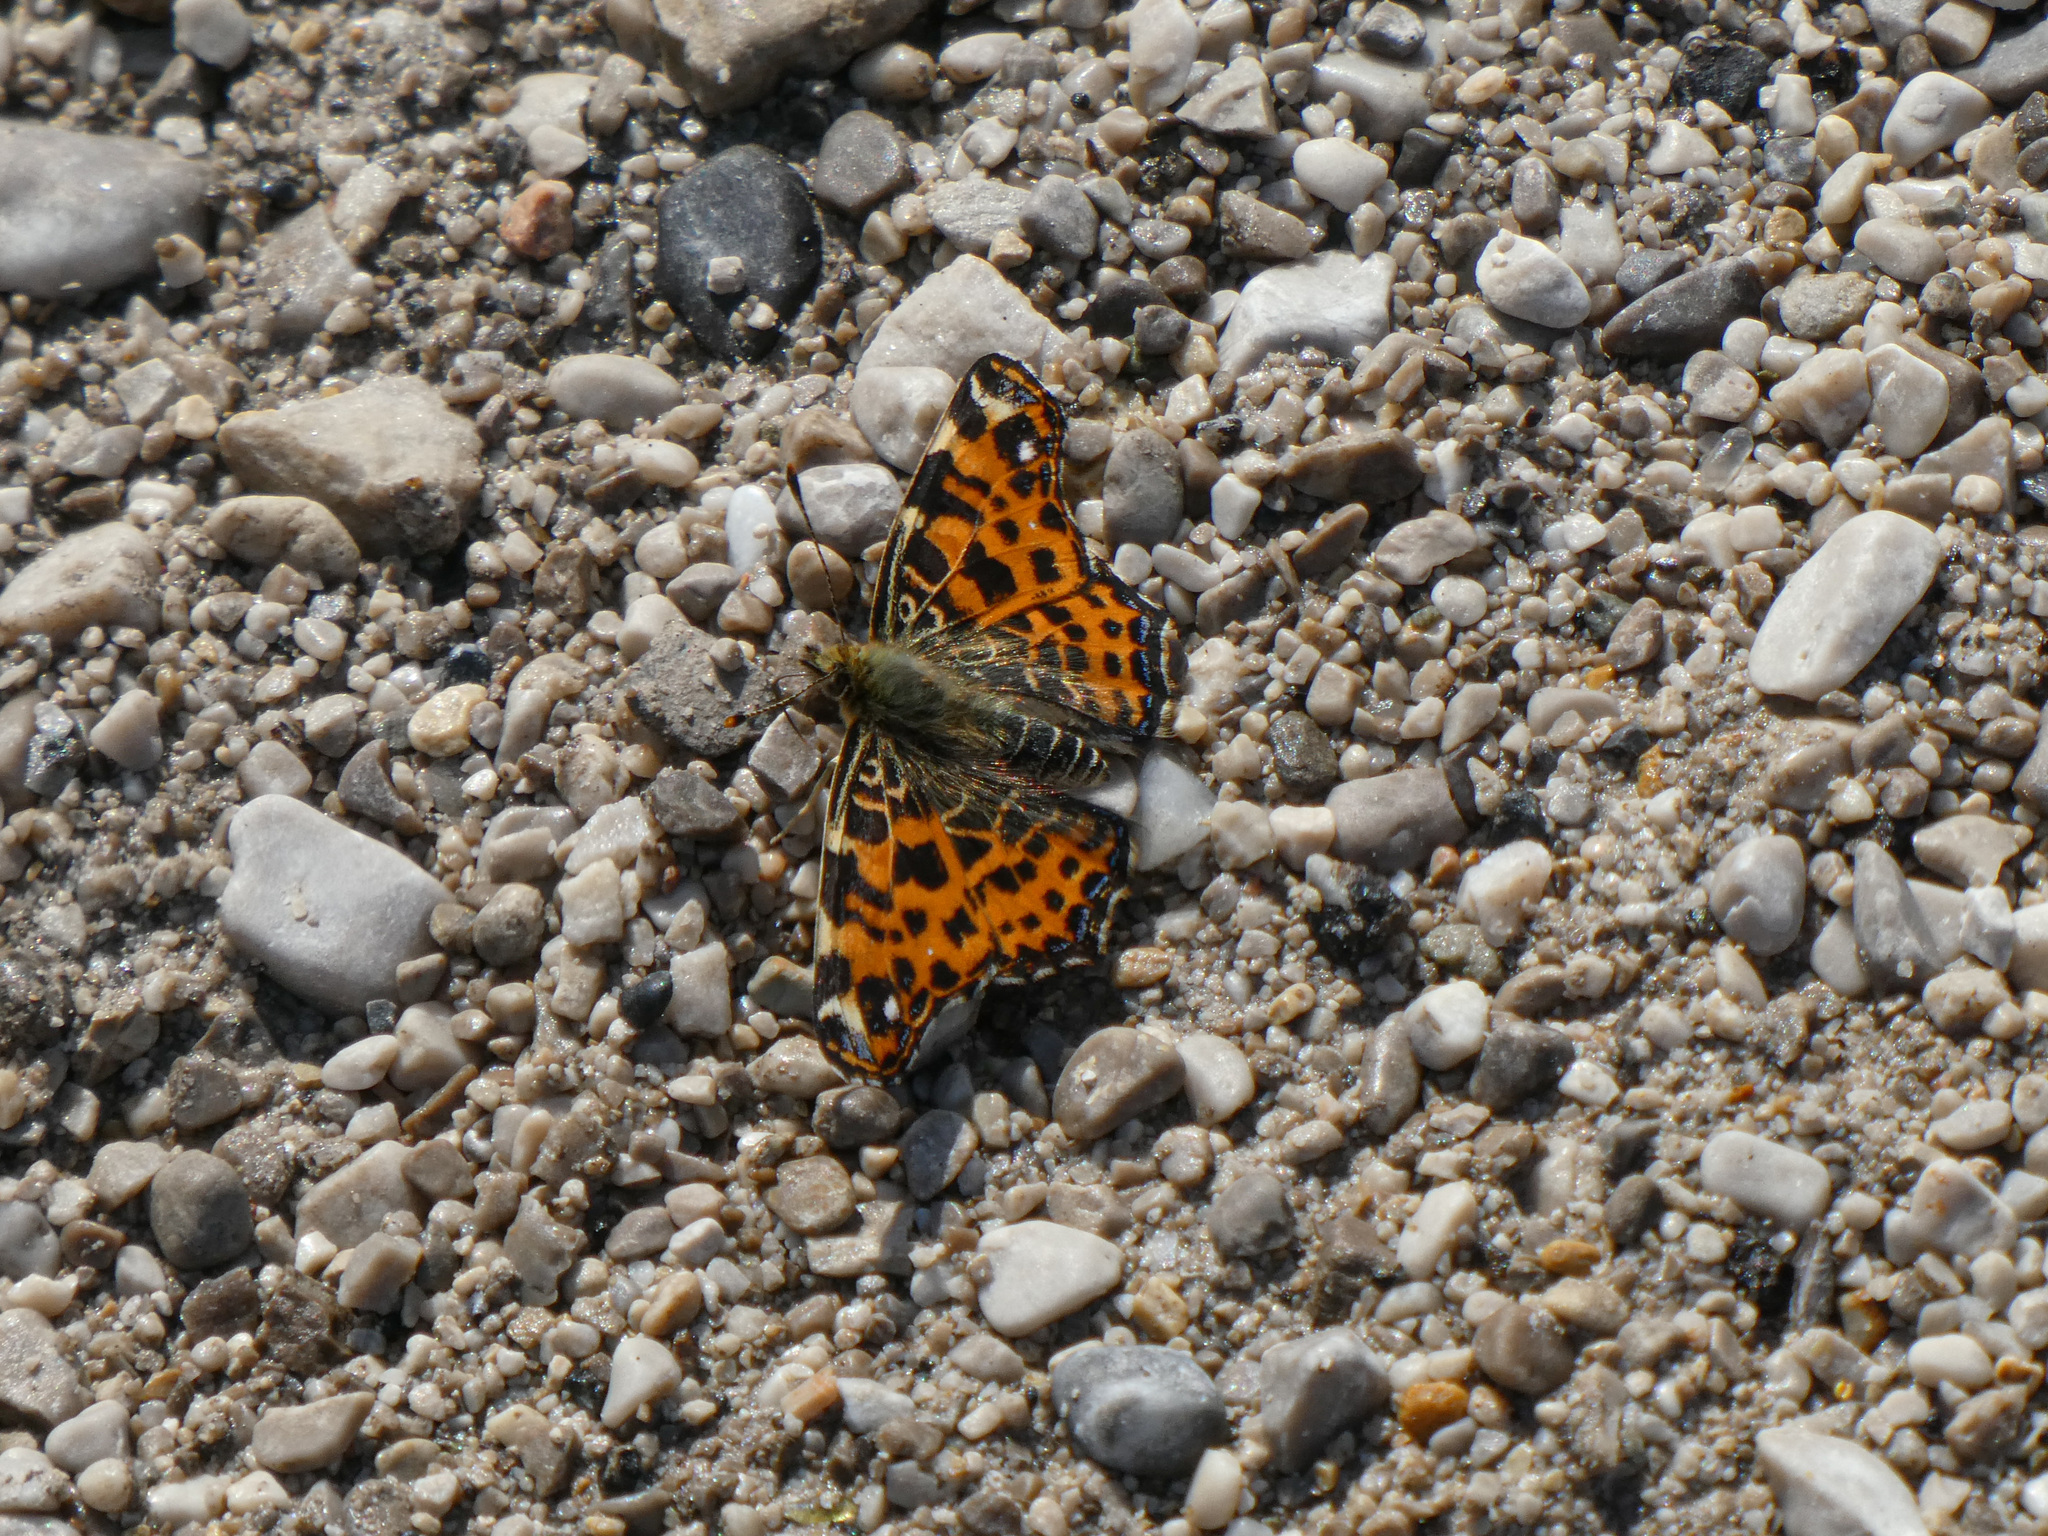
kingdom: Animalia
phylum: Arthropoda
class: Insecta
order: Lepidoptera
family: Nymphalidae
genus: Araschnia
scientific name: Araschnia levana
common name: Map butterfly
